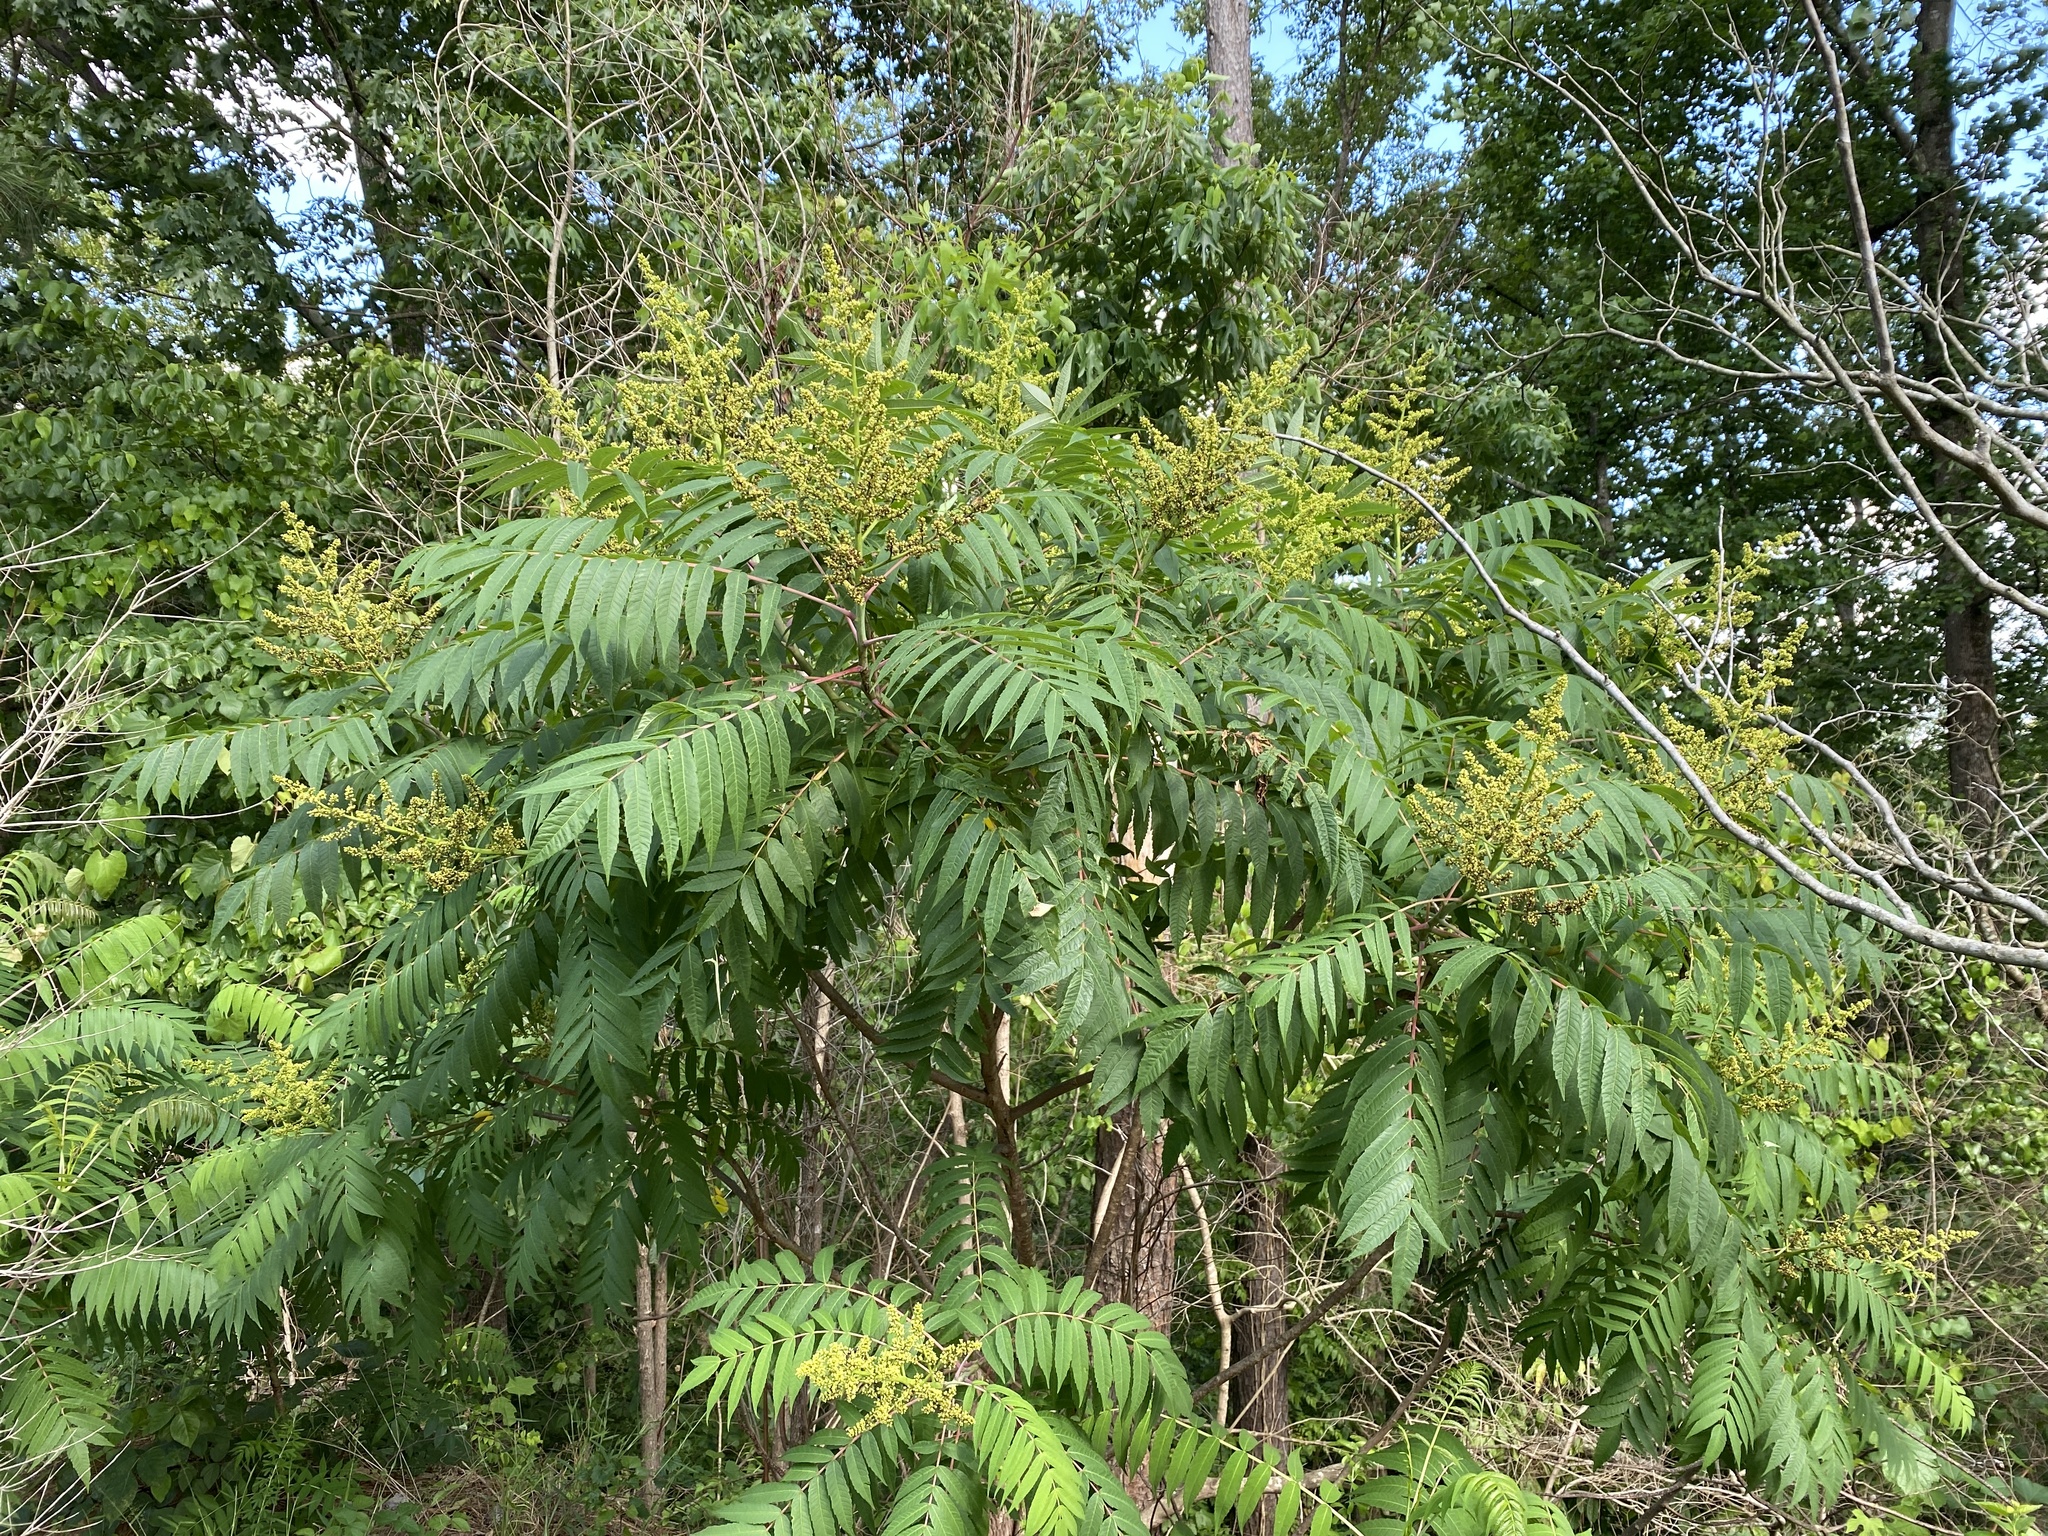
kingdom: Plantae
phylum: Tracheophyta
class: Magnoliopsida
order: Sapindales
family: Anacardiaceae
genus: Rhus
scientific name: Rhus glabra
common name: Scarlet sumac
